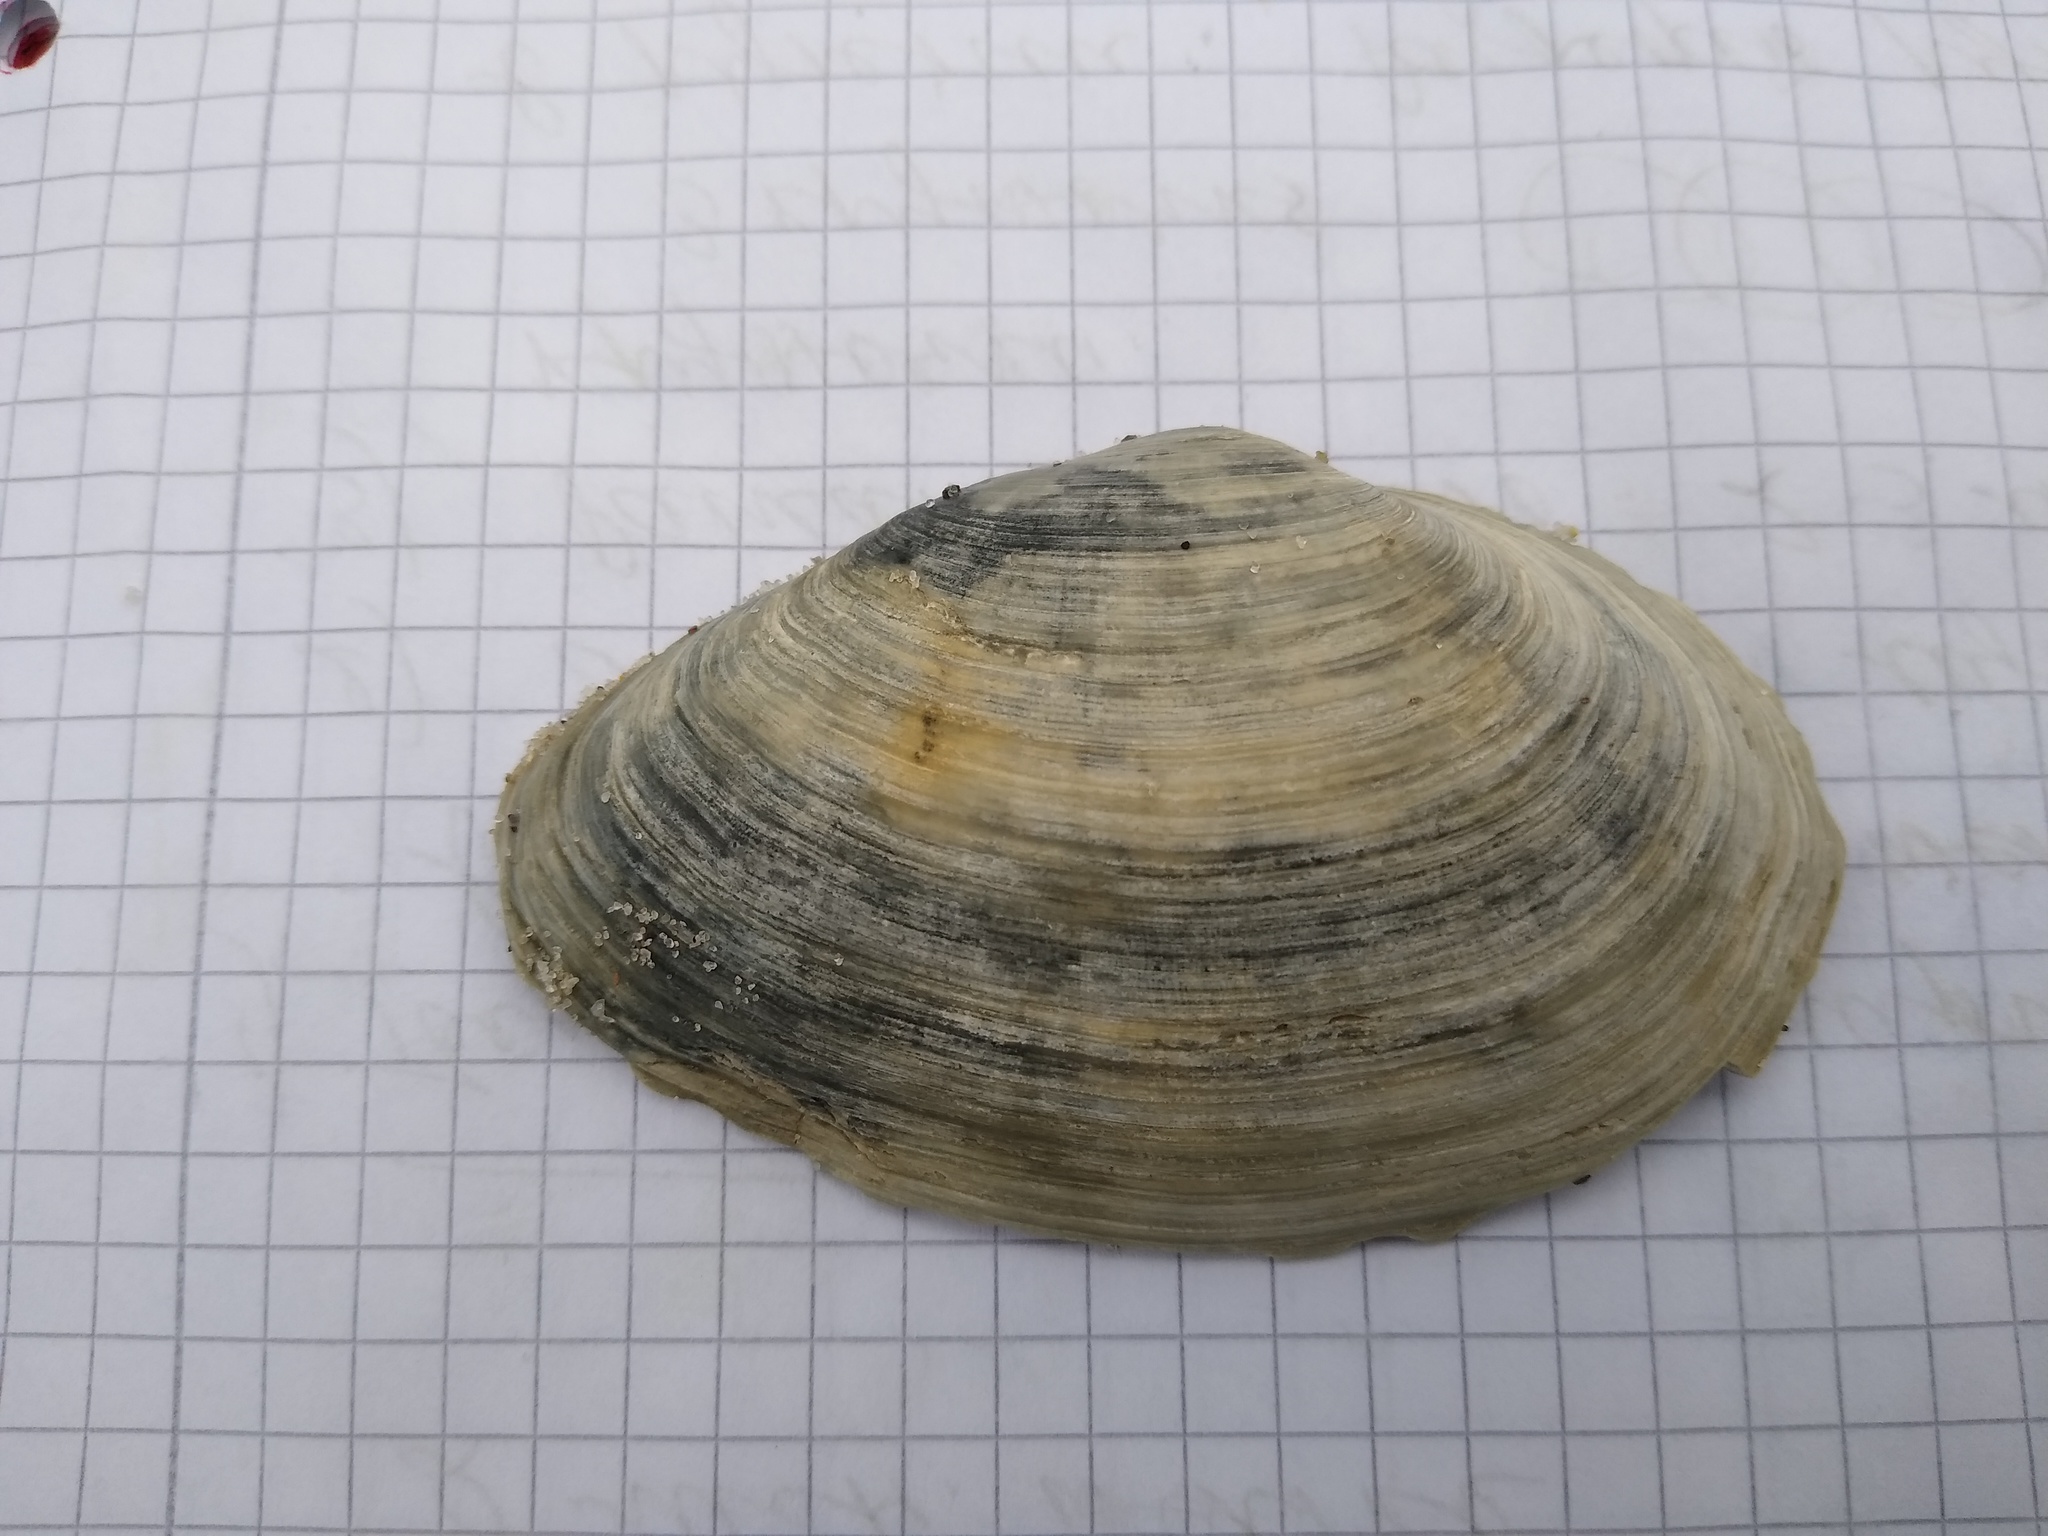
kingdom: Animalia
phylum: Mollusca
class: Bivalvia
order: Myida
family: Myidae
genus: Mya
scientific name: Mya arenaria
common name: Soft-shelled clam
